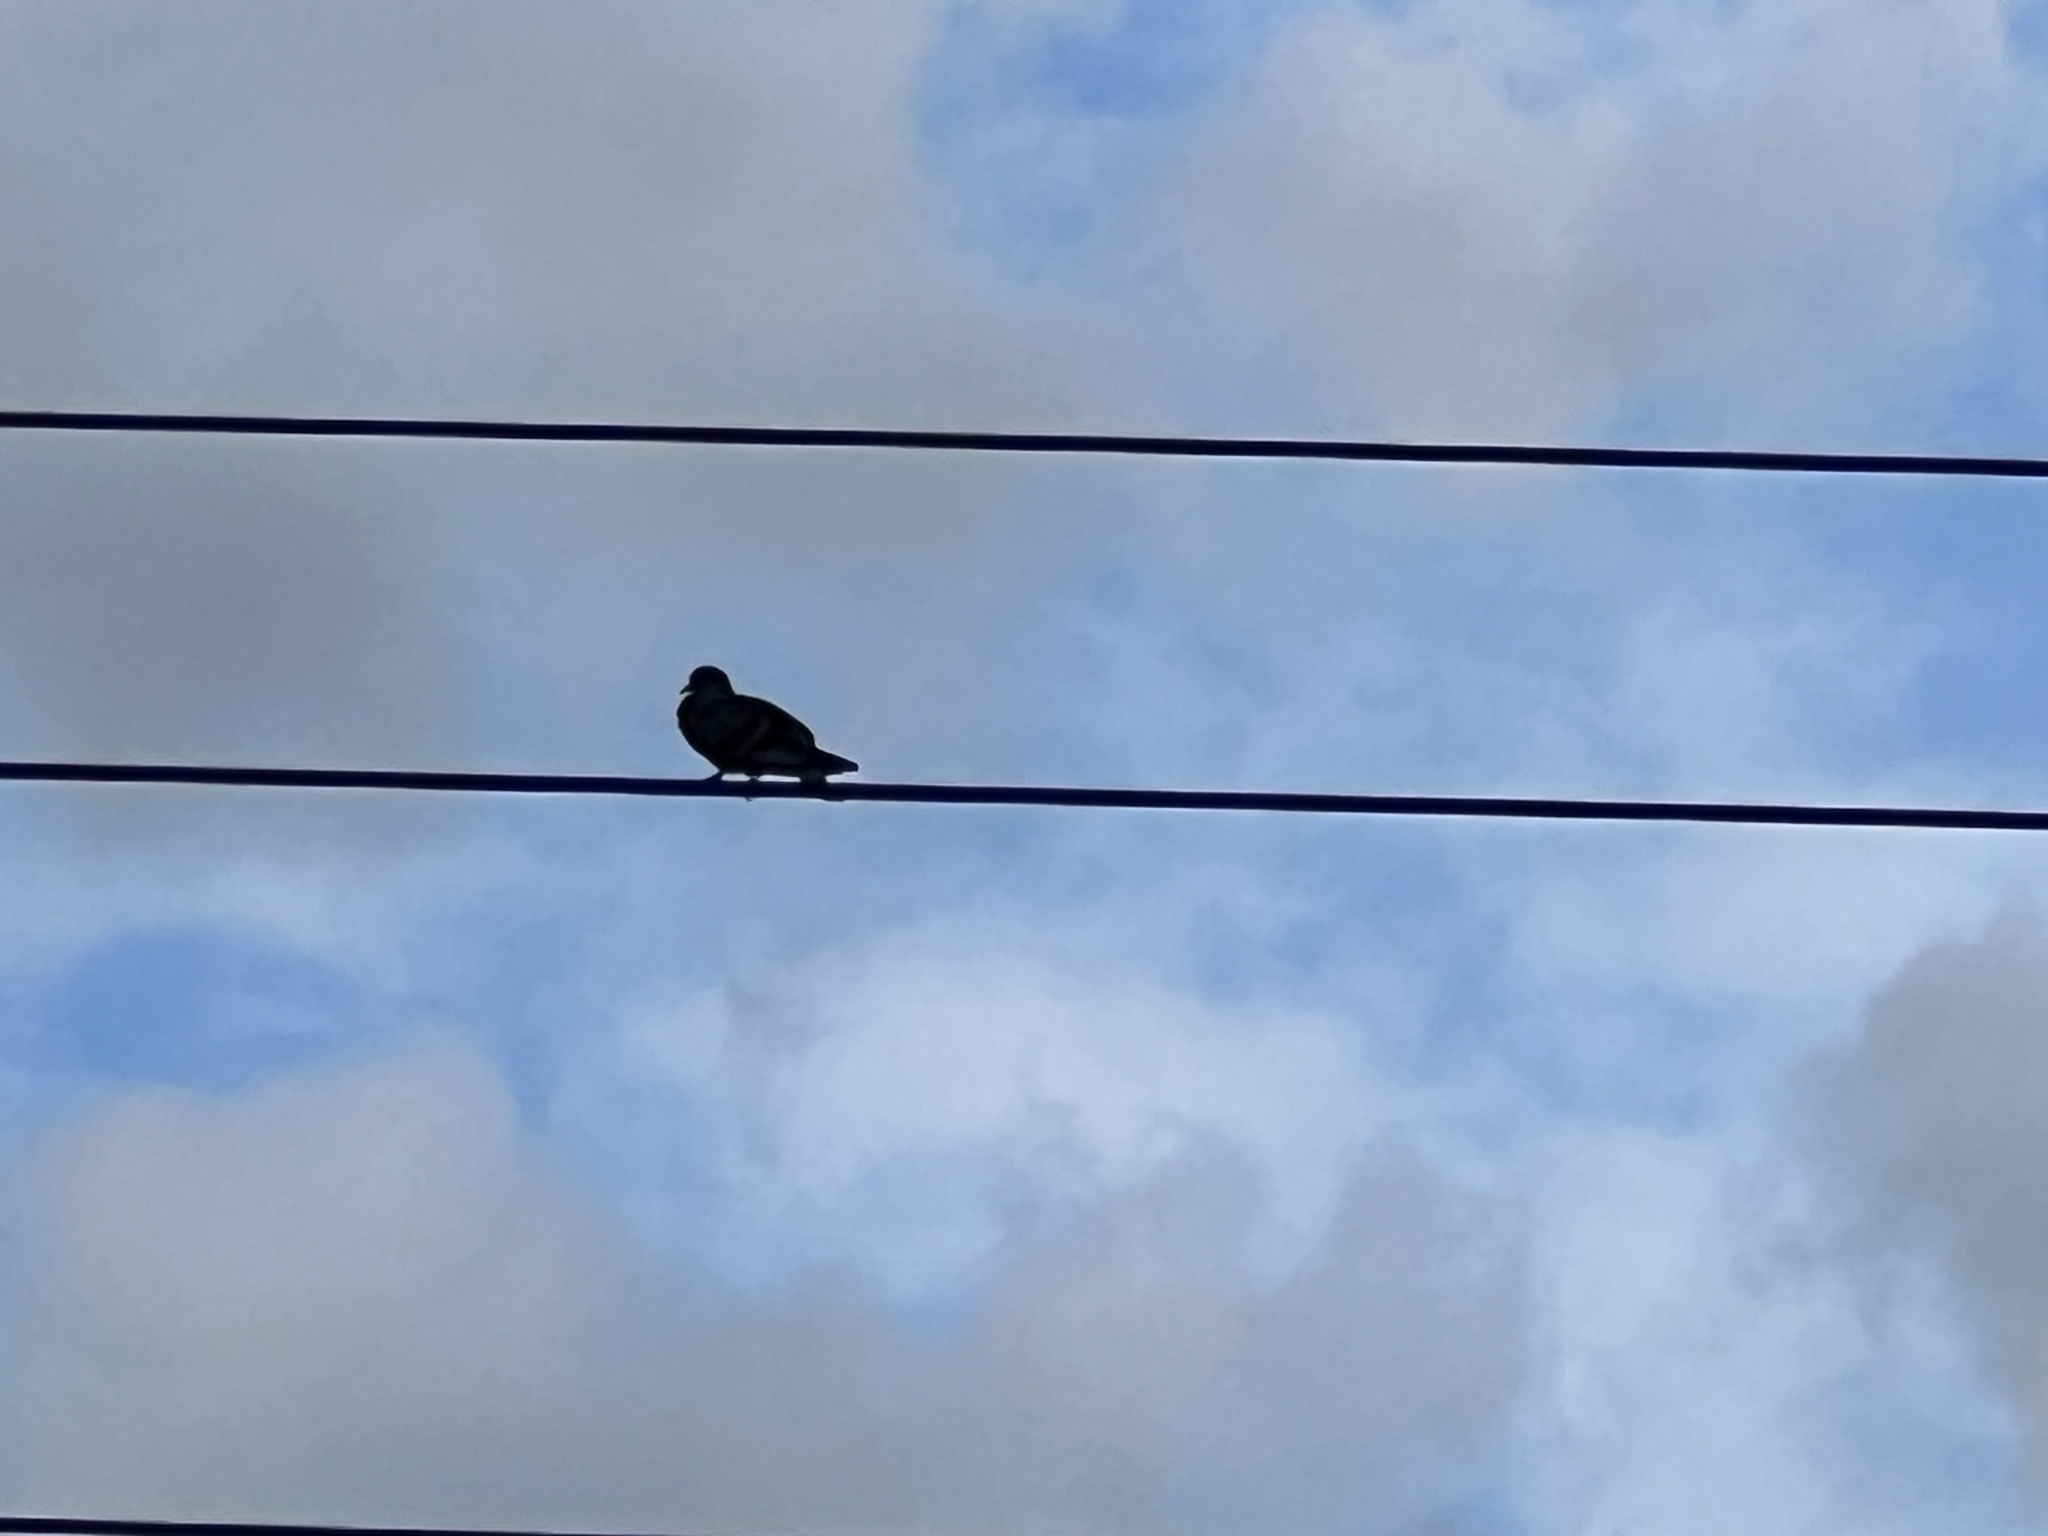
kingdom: Animalia
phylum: Chordata
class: Aves
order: Columbiformes
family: Columbidae
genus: Zenaida
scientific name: Zenaida macroura
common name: Mourning dove
